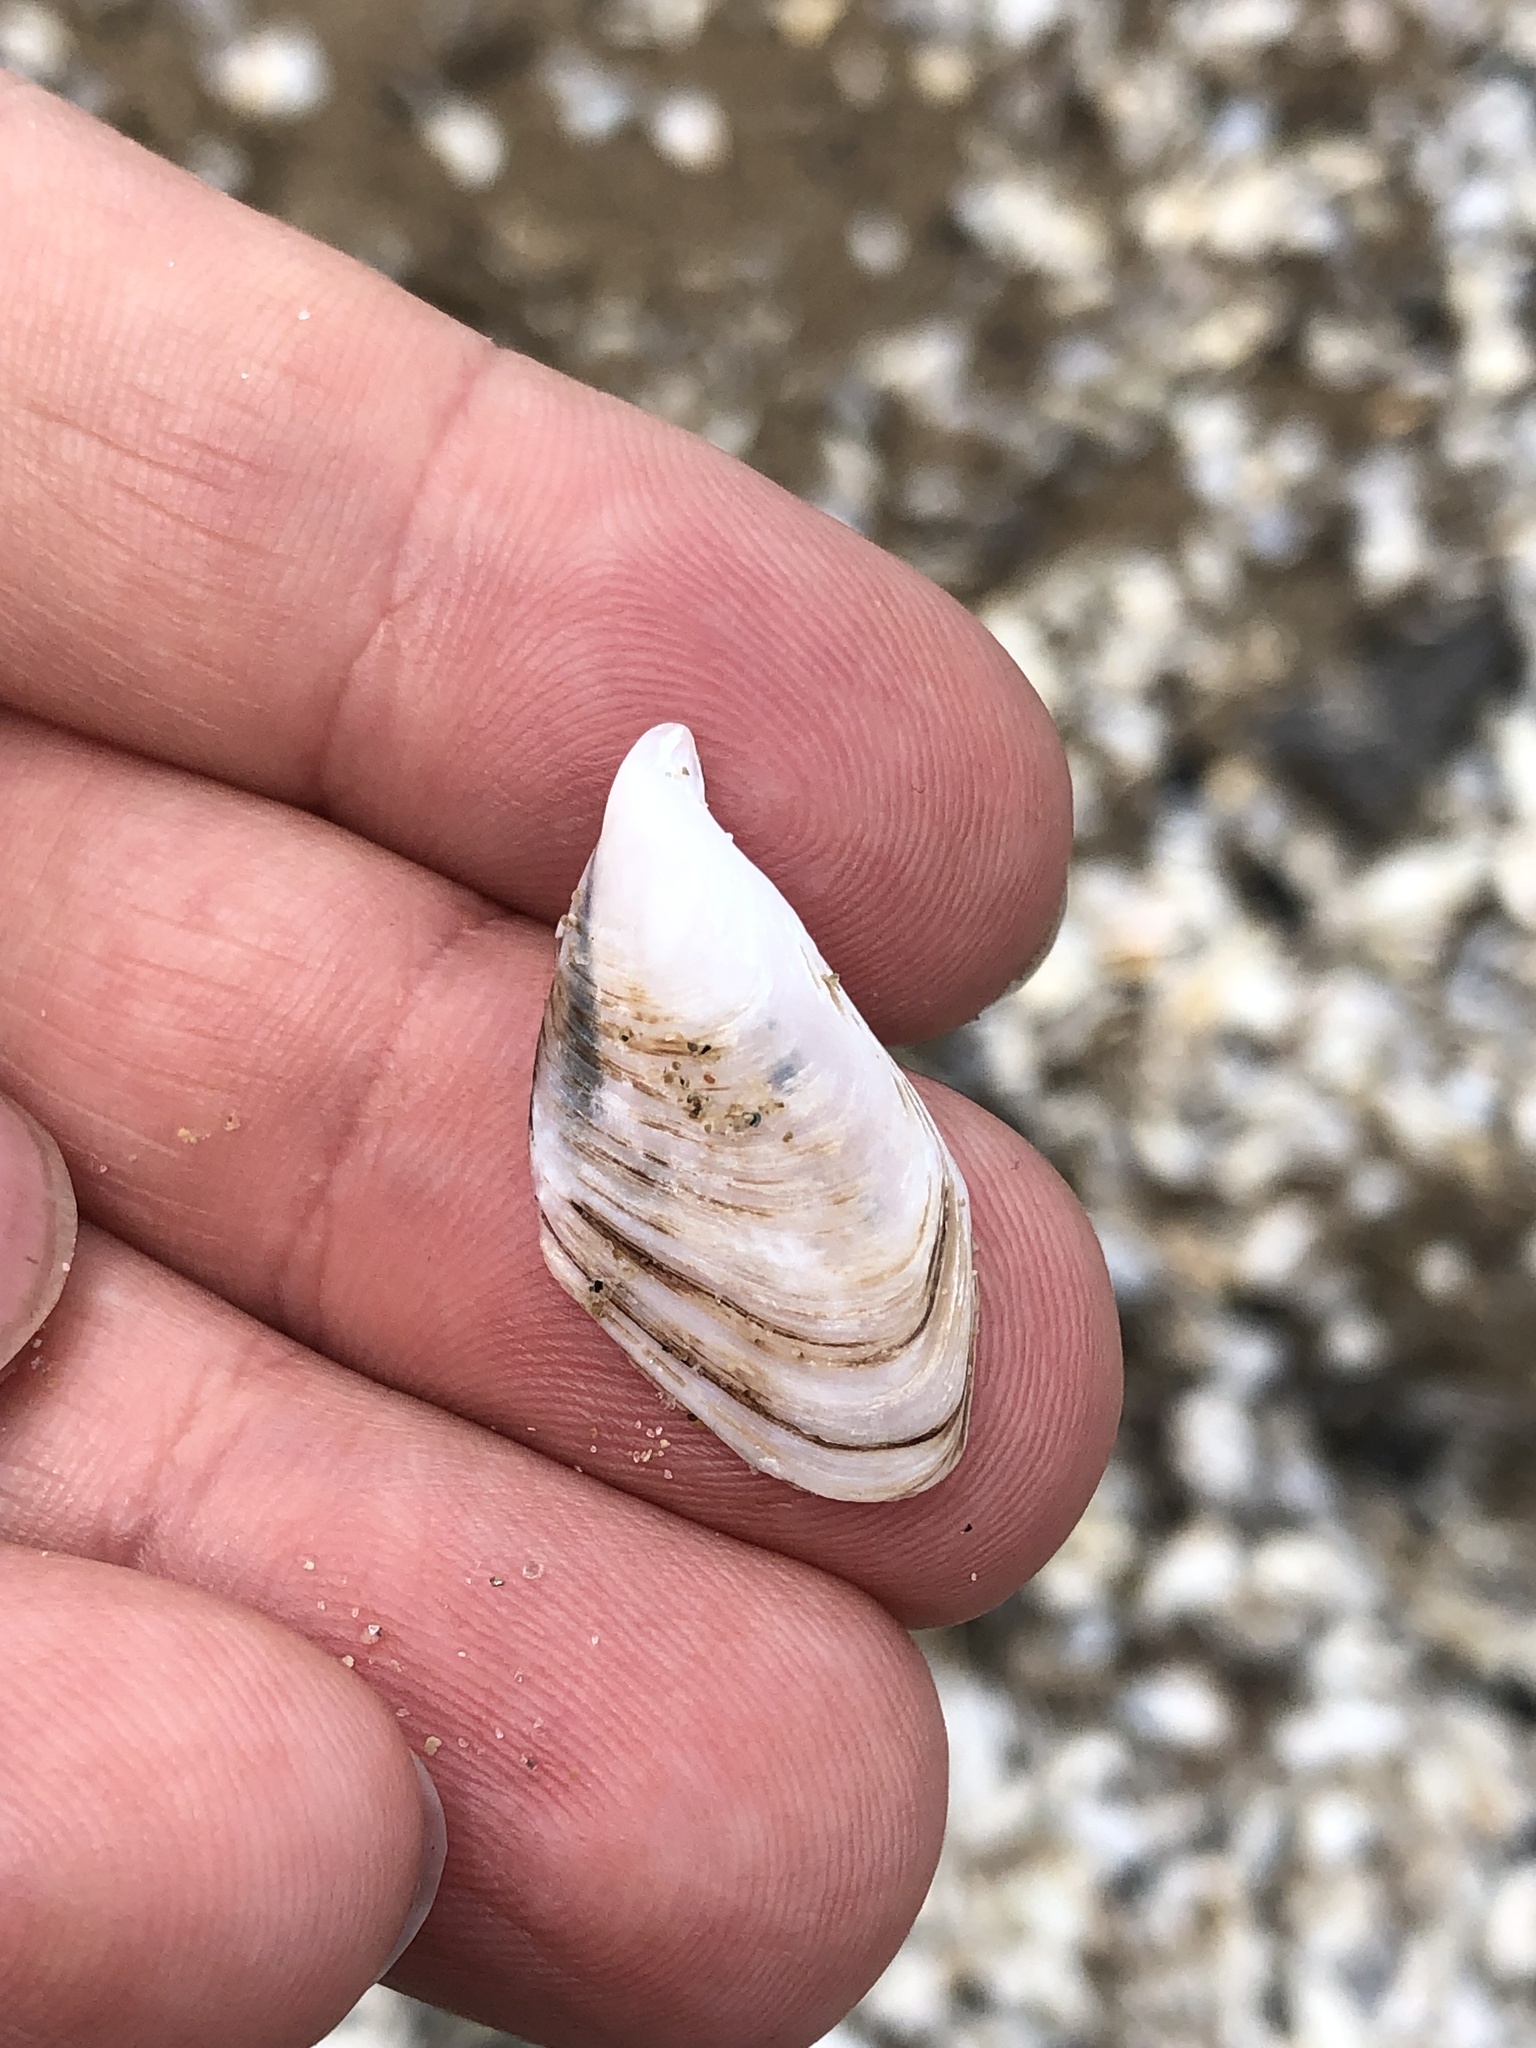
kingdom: Animalia
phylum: Mollusca
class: Bivalvia
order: Myida
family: Dreissenidae
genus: Dreissena
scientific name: Dreissena bugensis
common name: Quagga mussel
